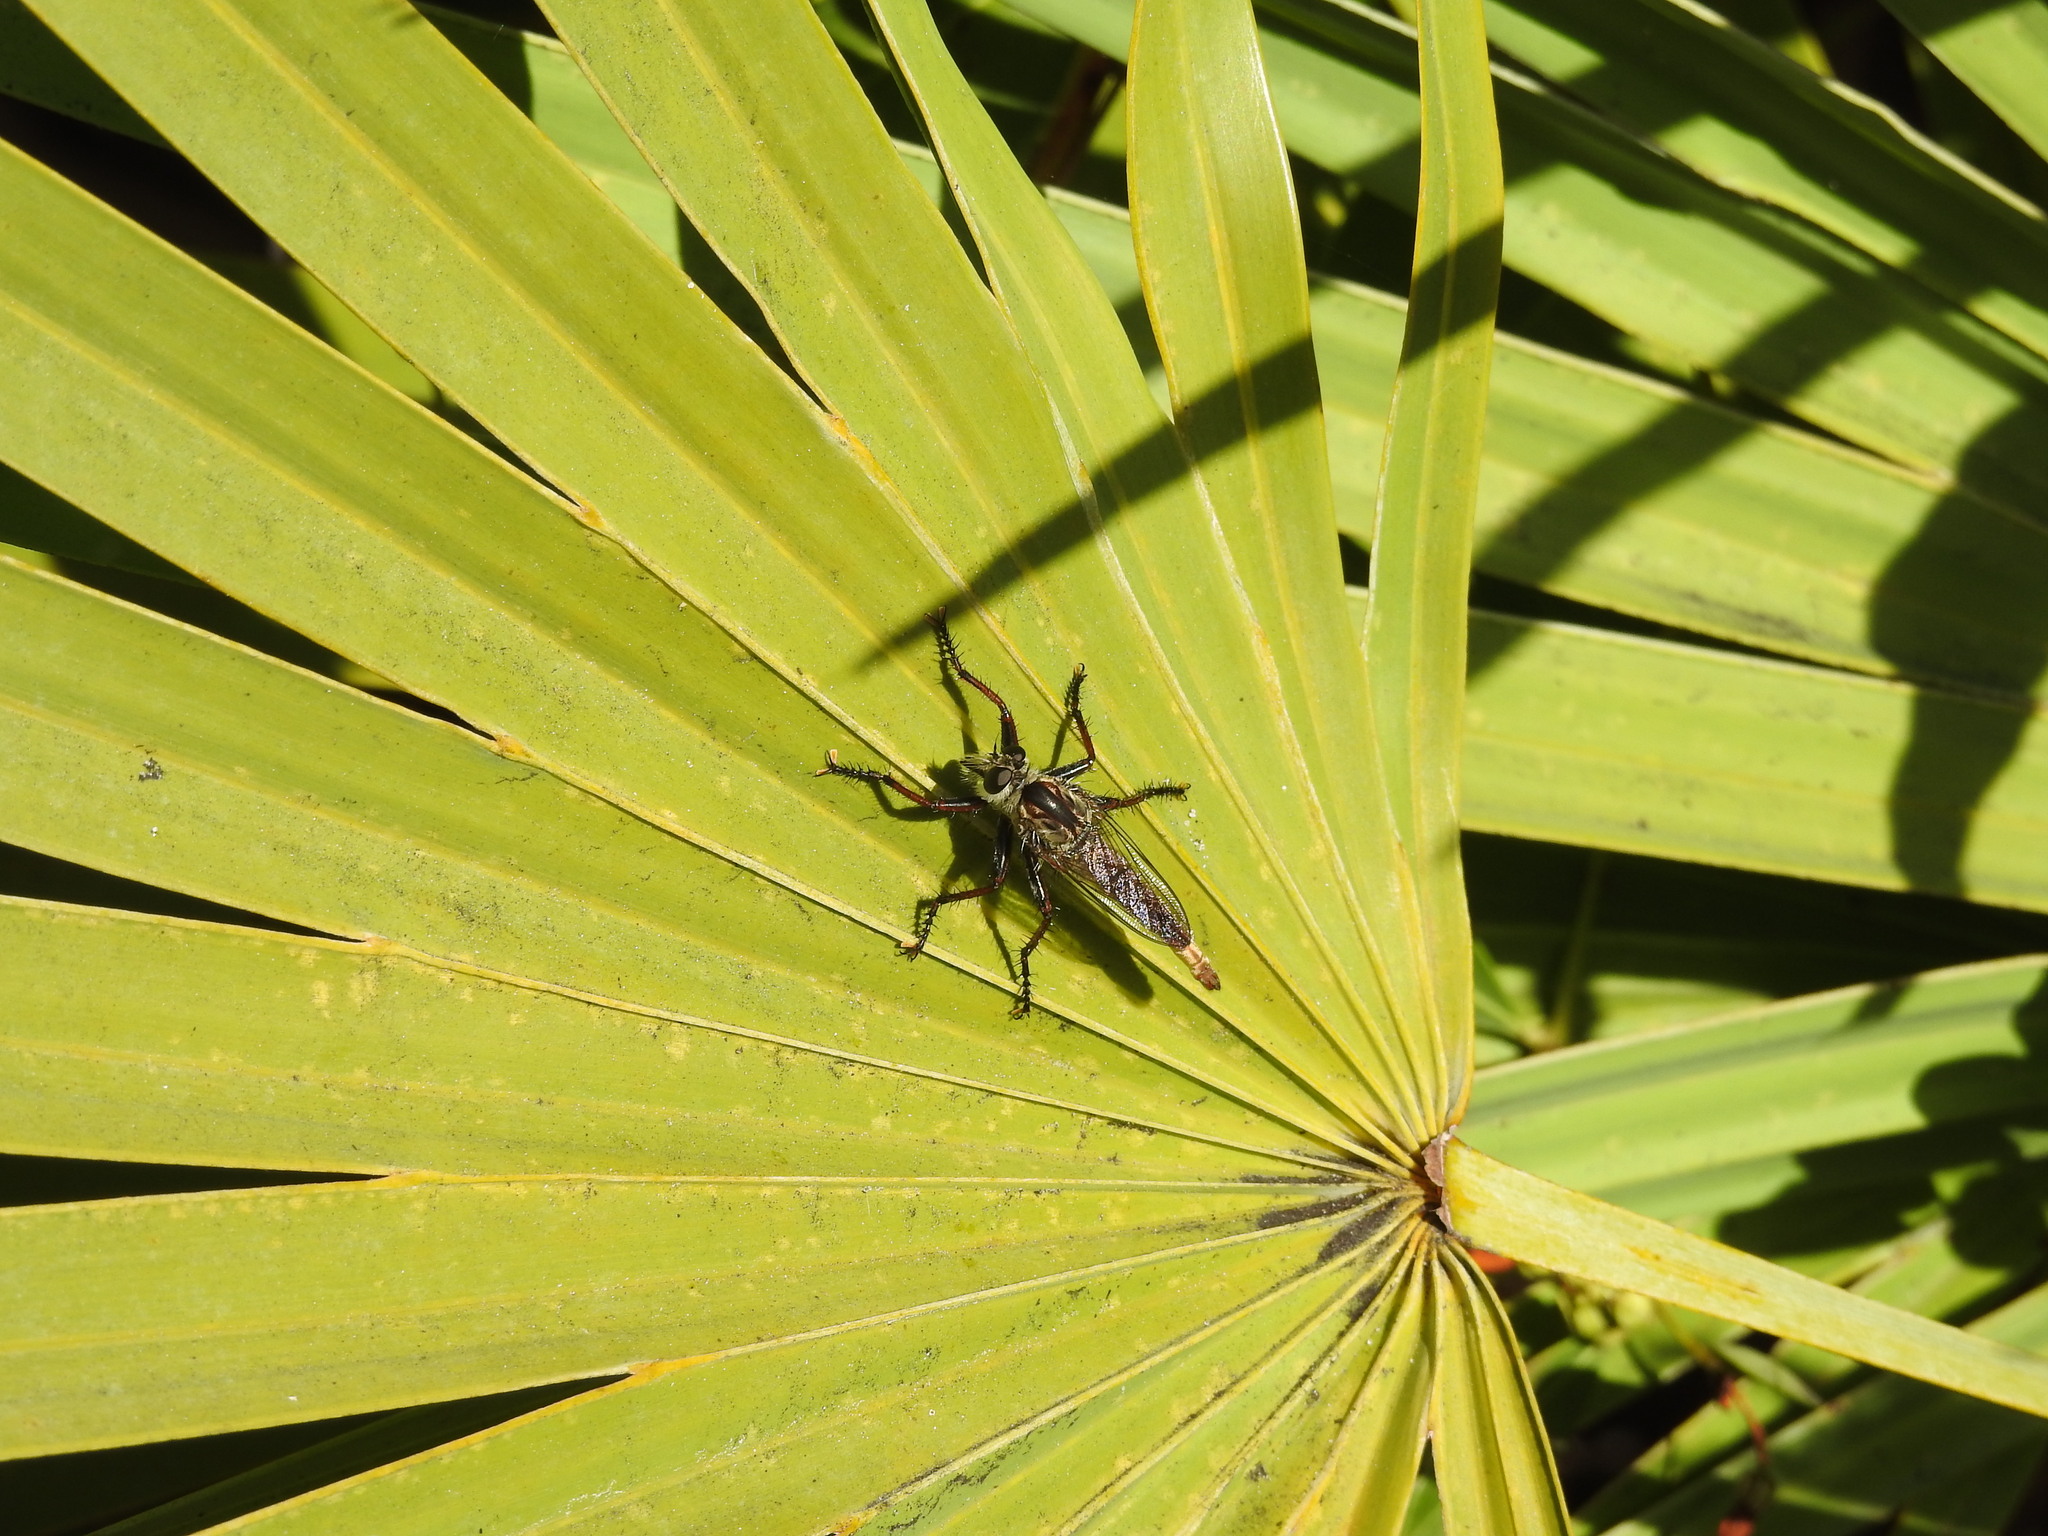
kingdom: Animalia
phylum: Arthropoda
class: Insecta
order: Diptera
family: Asilidae
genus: Proctacanthus
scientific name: Proctacanthus brevipennis
